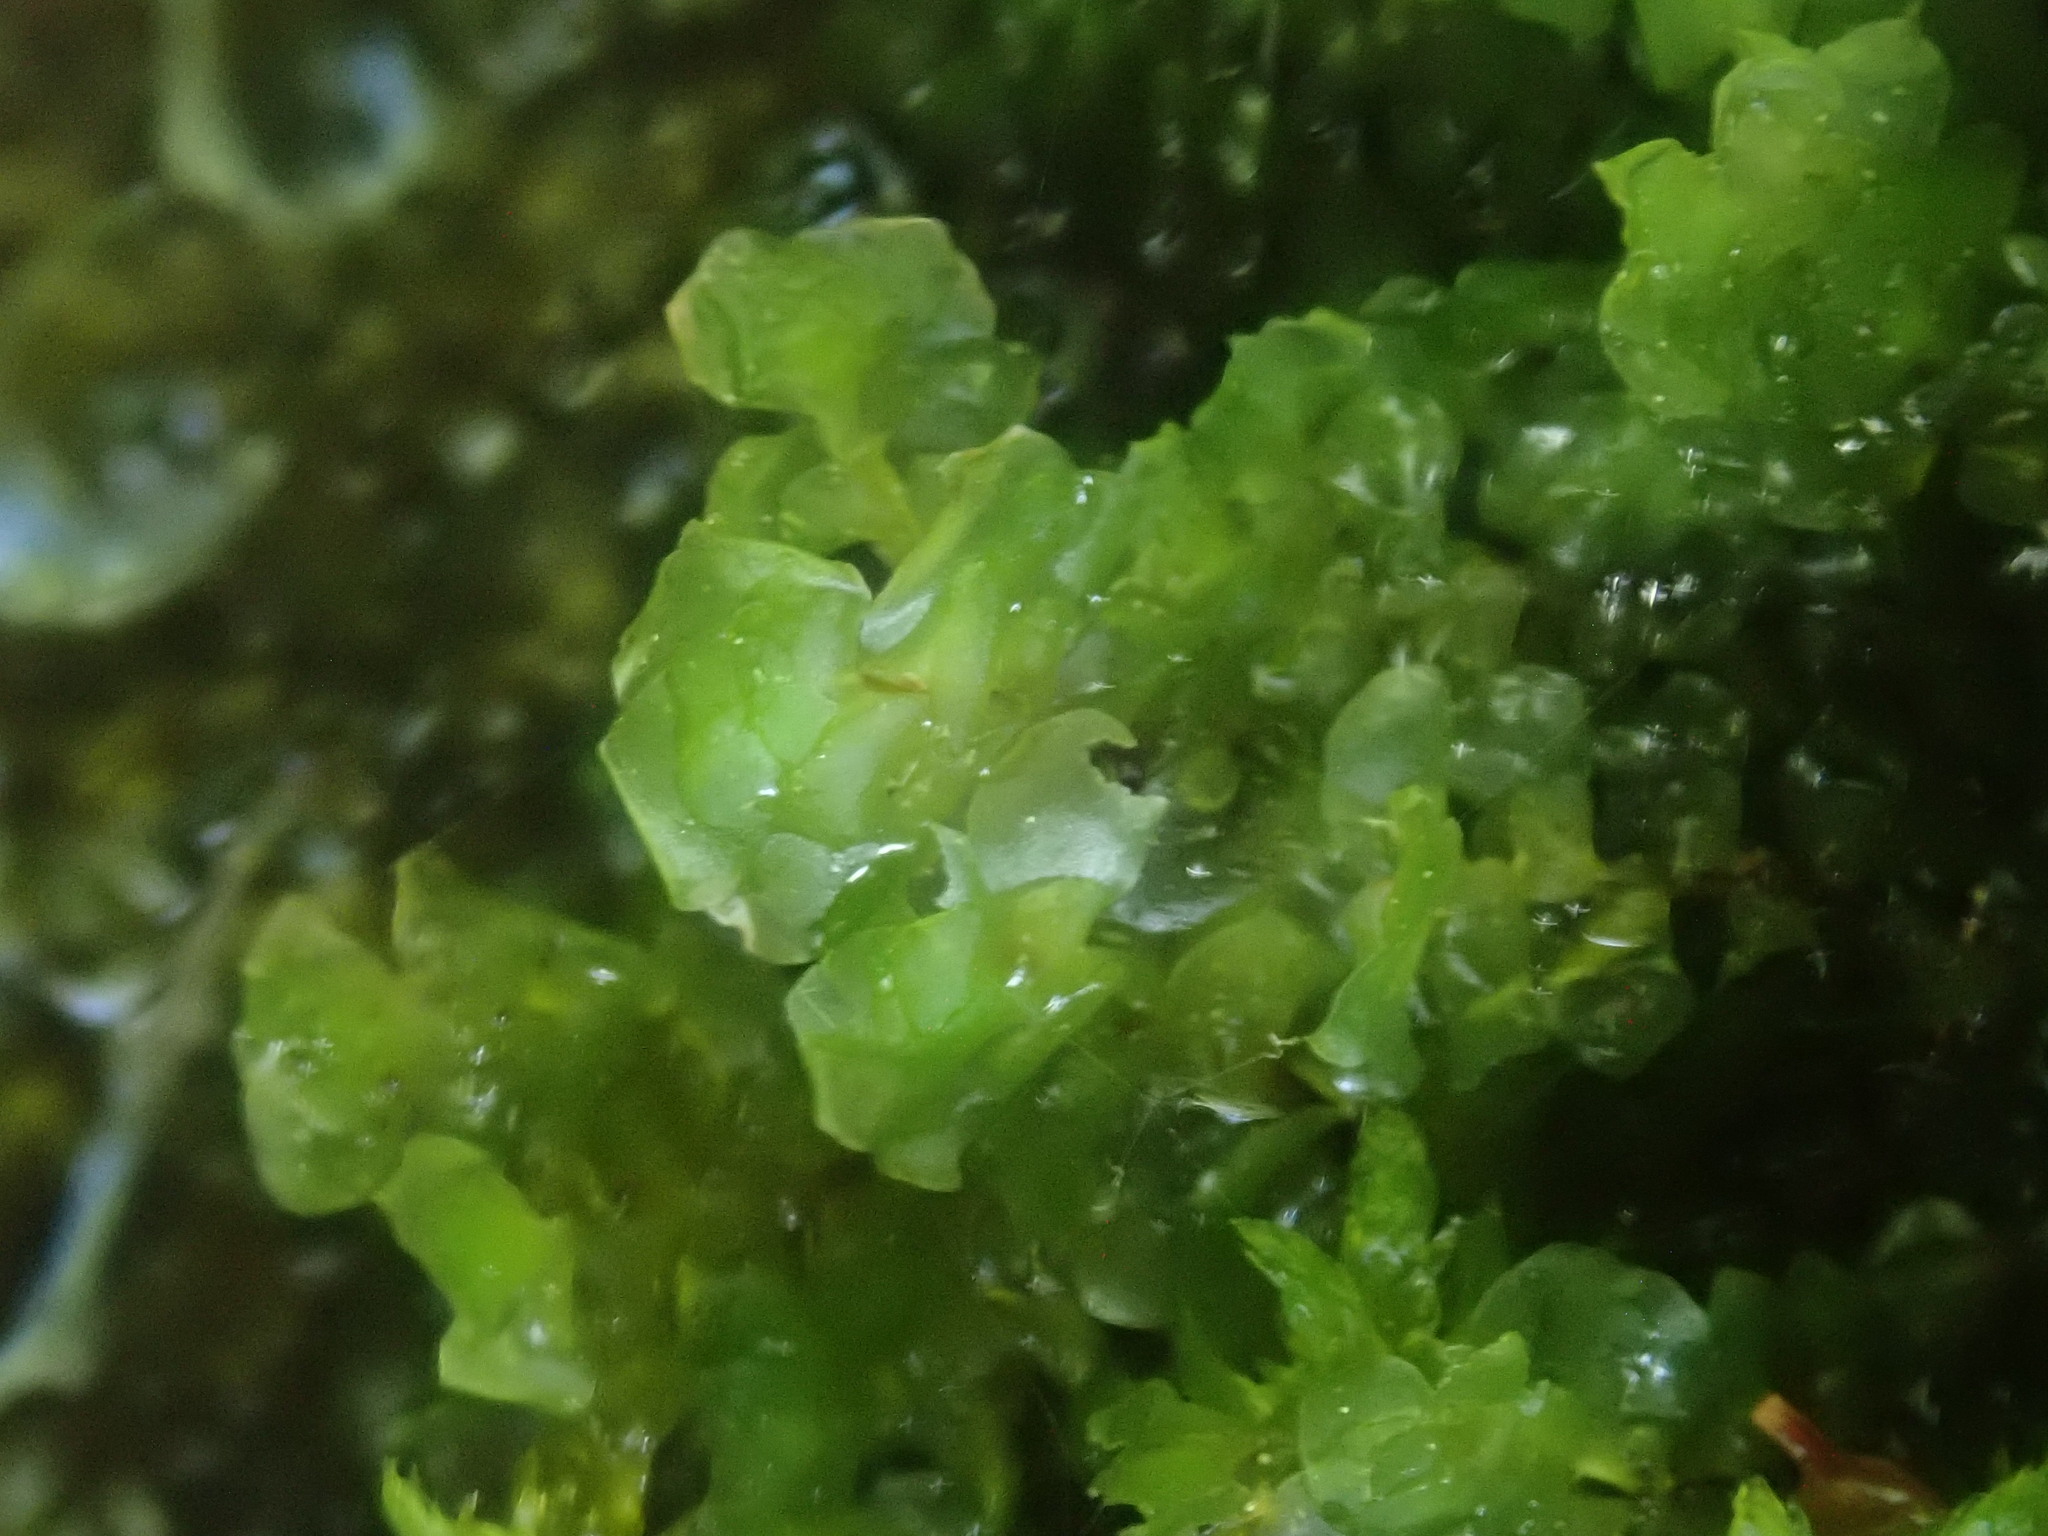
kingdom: Plantae
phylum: Marchantiophyta
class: Jungermanniopsida
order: Jungermanniales
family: Scapaniaceae
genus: Scapania
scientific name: Scapania undulata
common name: Water earwort
